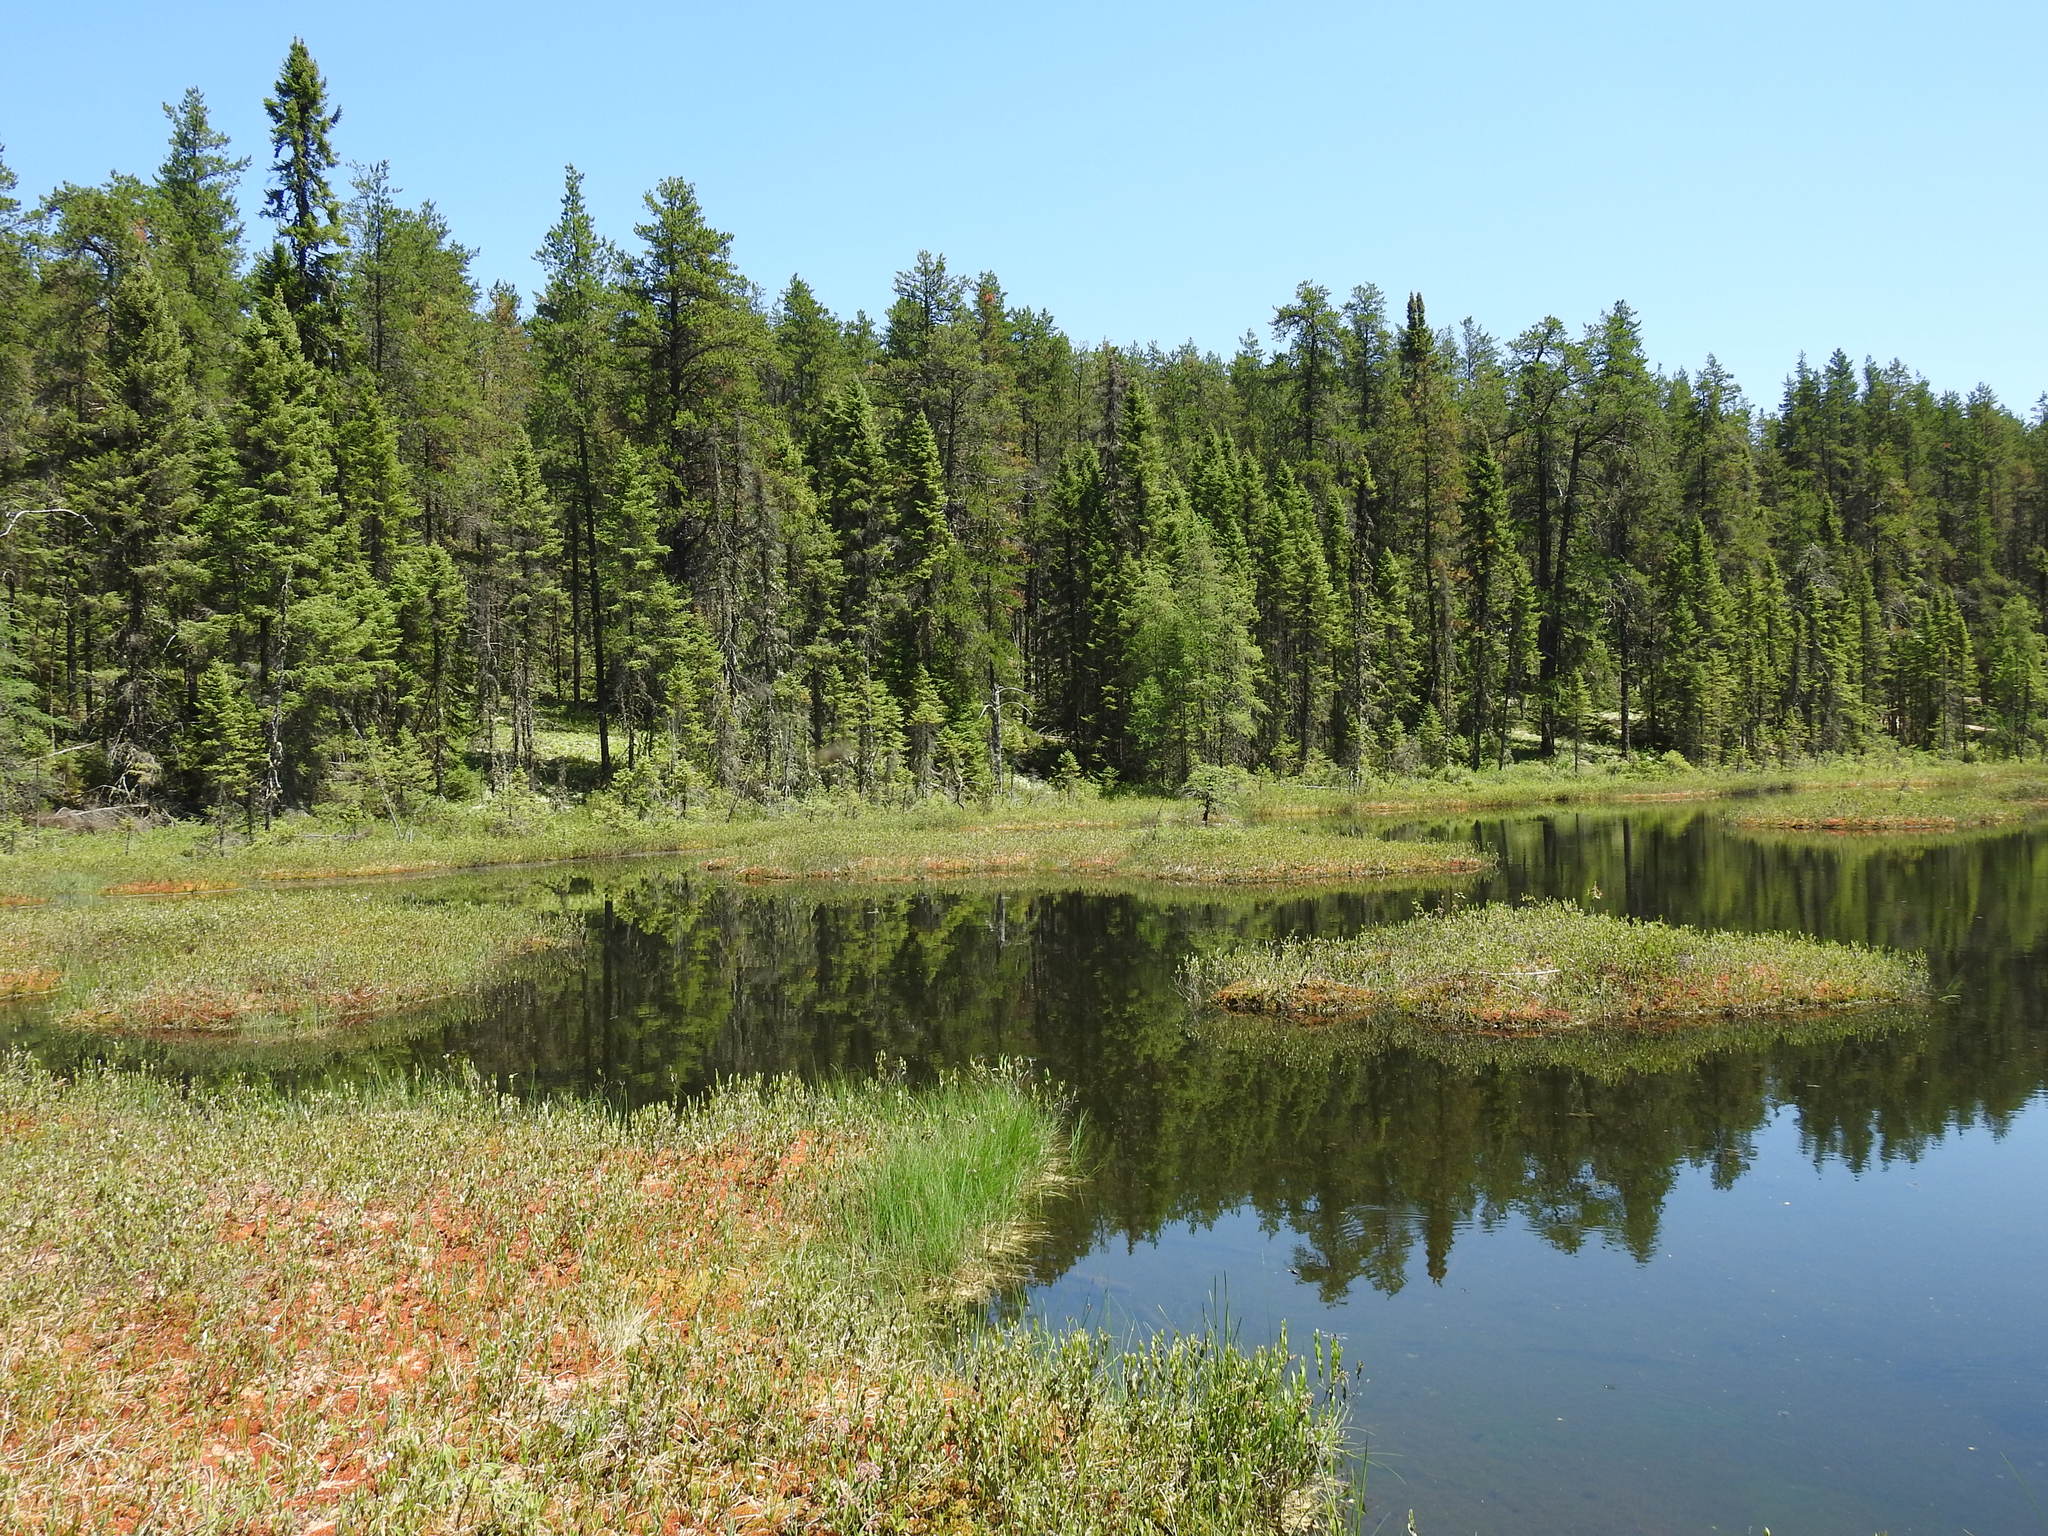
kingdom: Plantae
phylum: Tracheophyta
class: Pinopsida
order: Pinales
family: Pinaceae
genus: Pinus
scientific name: Pinus banksiana
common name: Jack pine
